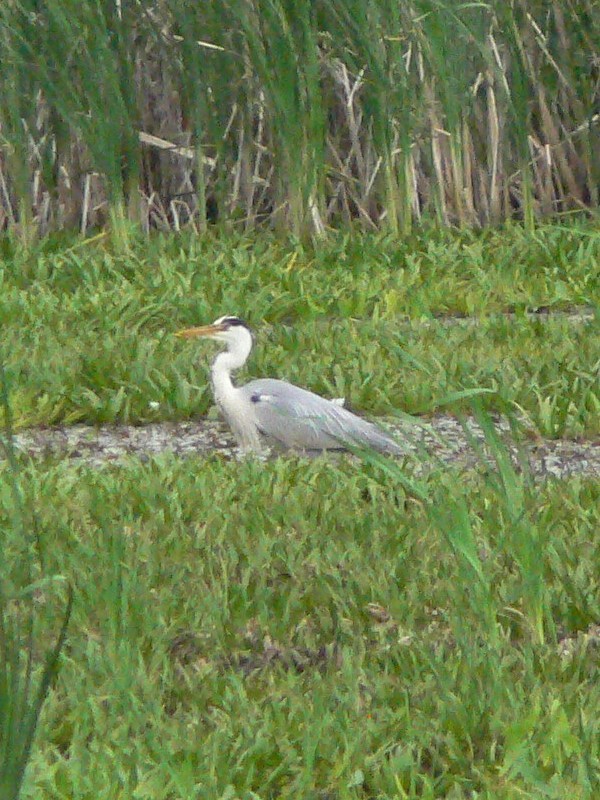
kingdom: Animalia
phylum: Chordata
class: Aves
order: Pelecaniformes
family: Ardeidae
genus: Ardea
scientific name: Ardea cinerea
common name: Grey heron
